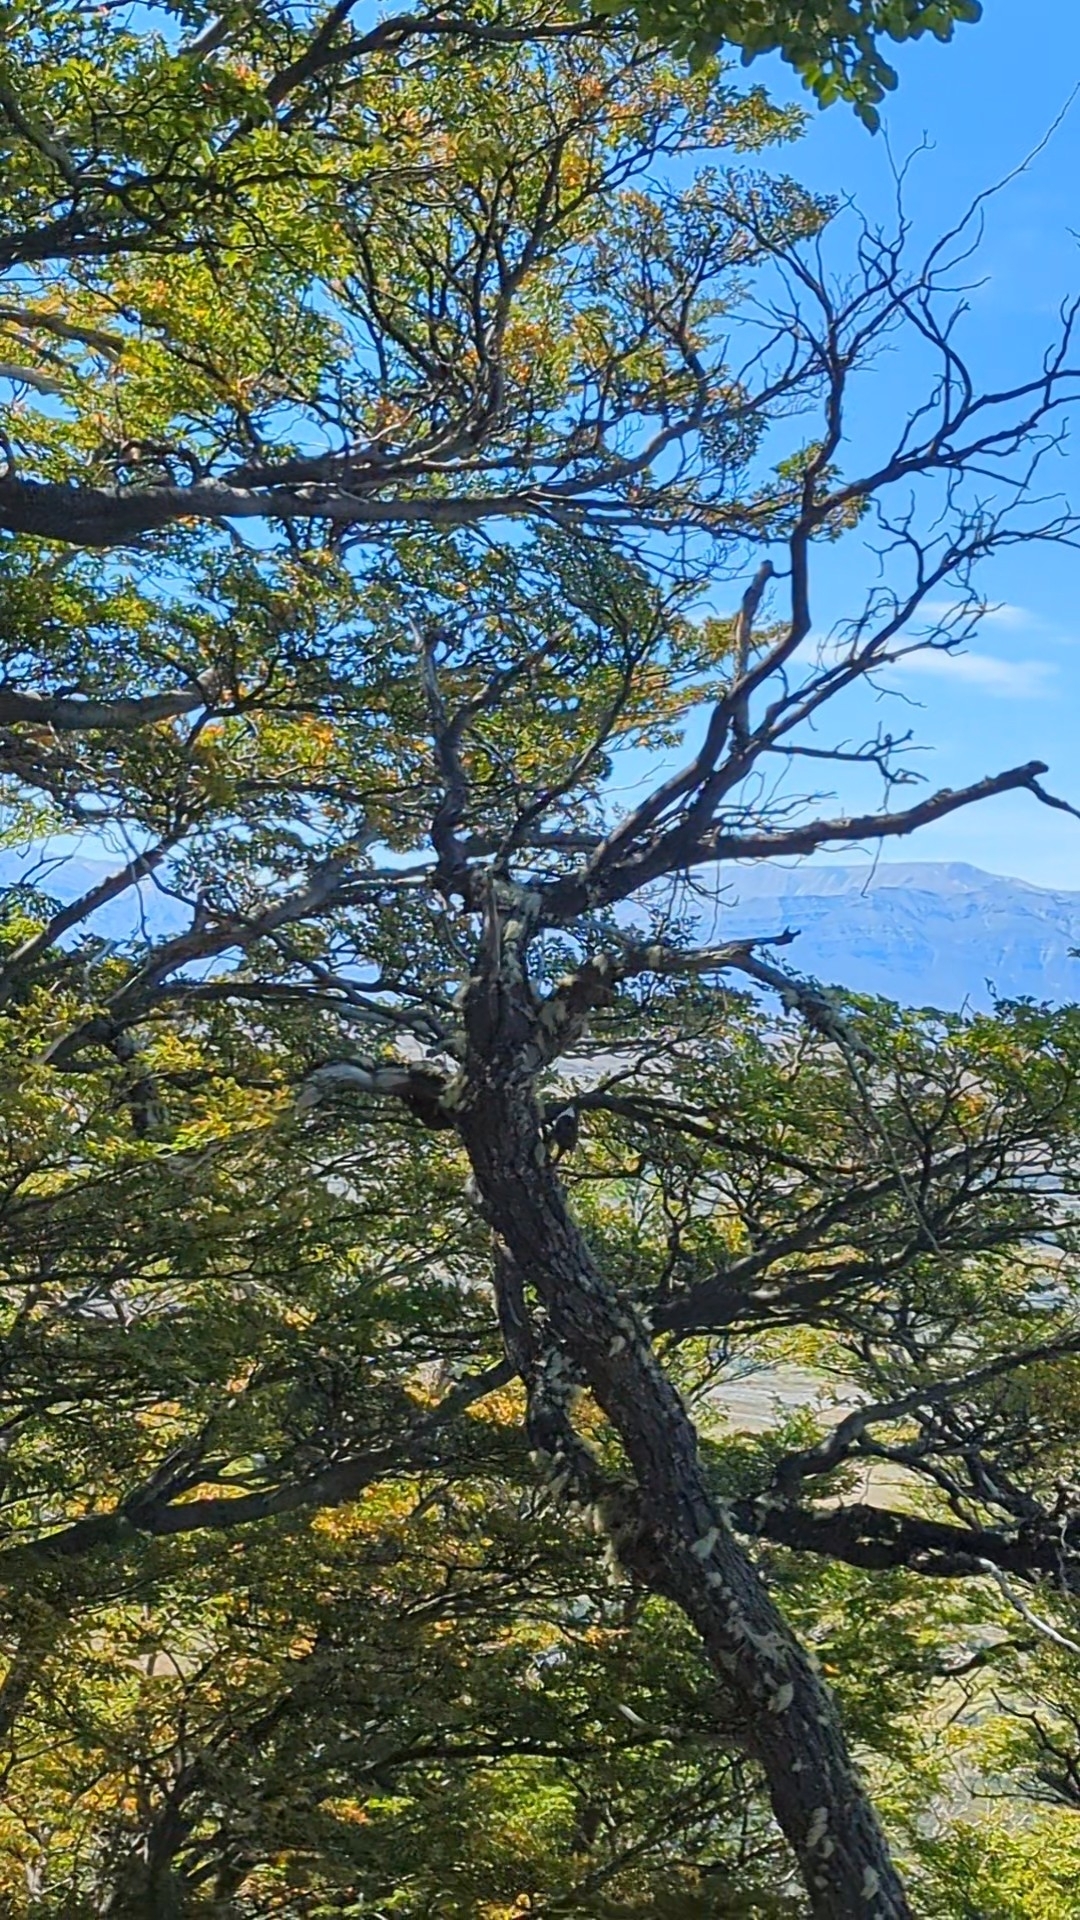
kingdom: Animalia
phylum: Chordata
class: Aves
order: Passeriformes
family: Furnariidae
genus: Pygarrhichas
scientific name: Pygarrhichas albogularis
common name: White-throated treerunner
